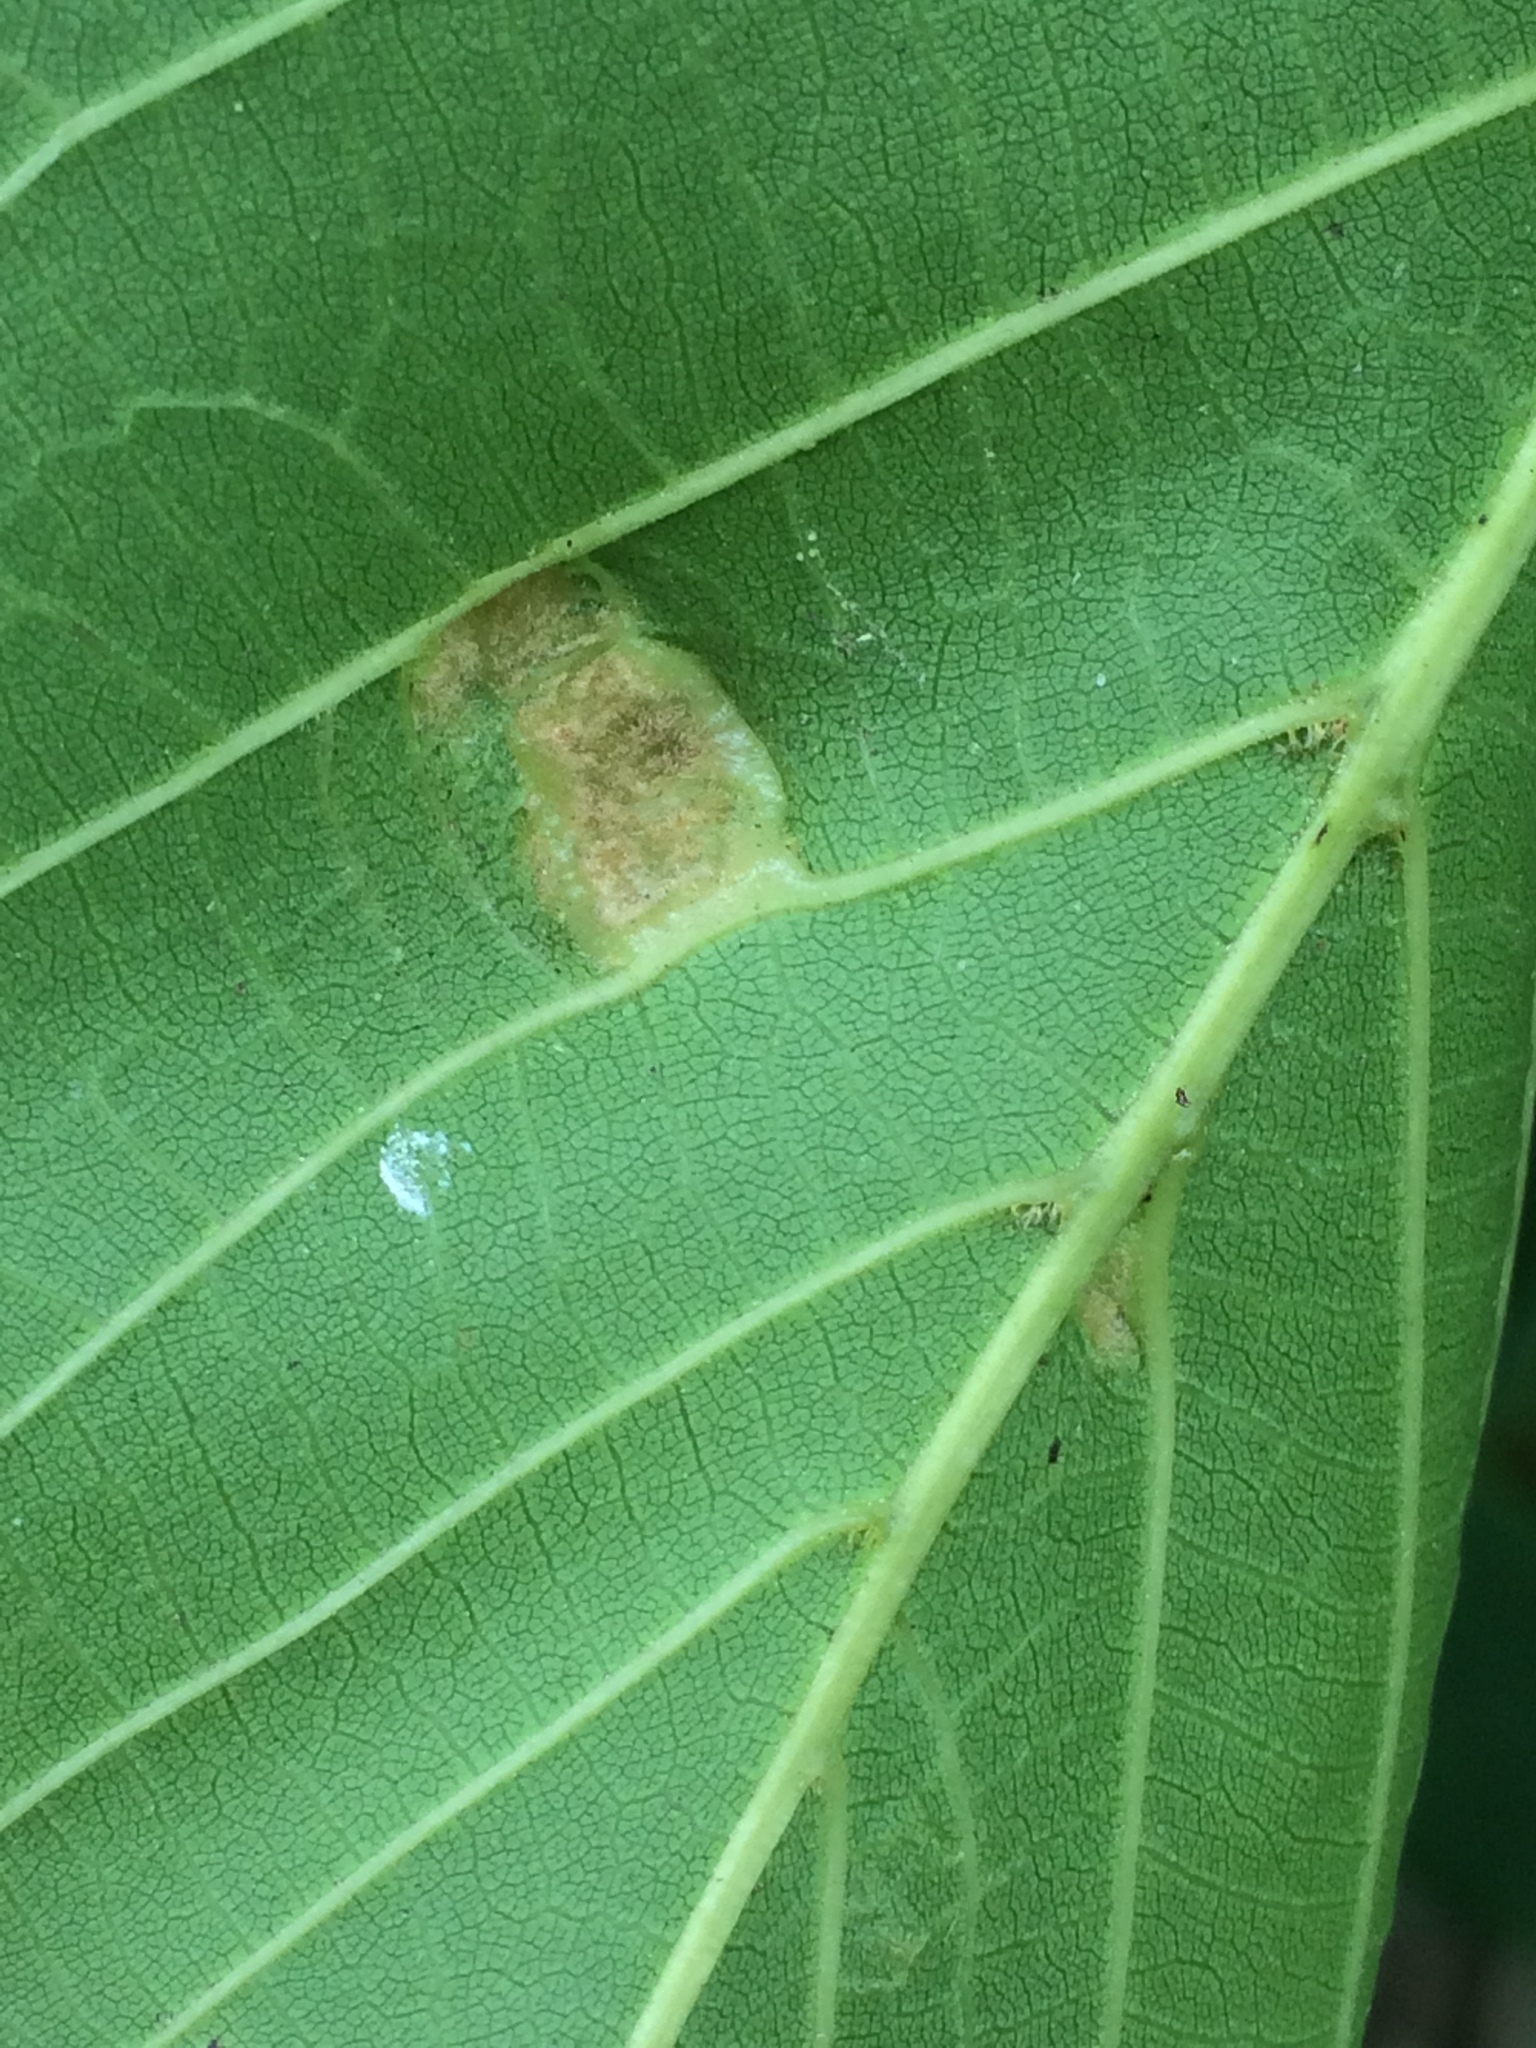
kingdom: Animalia
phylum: Arthropoda
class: Arachnida
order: Trombidiformes
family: Eriophyidae
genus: Aceria
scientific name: Aceria erinea
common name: Persian walnut erineum mite
